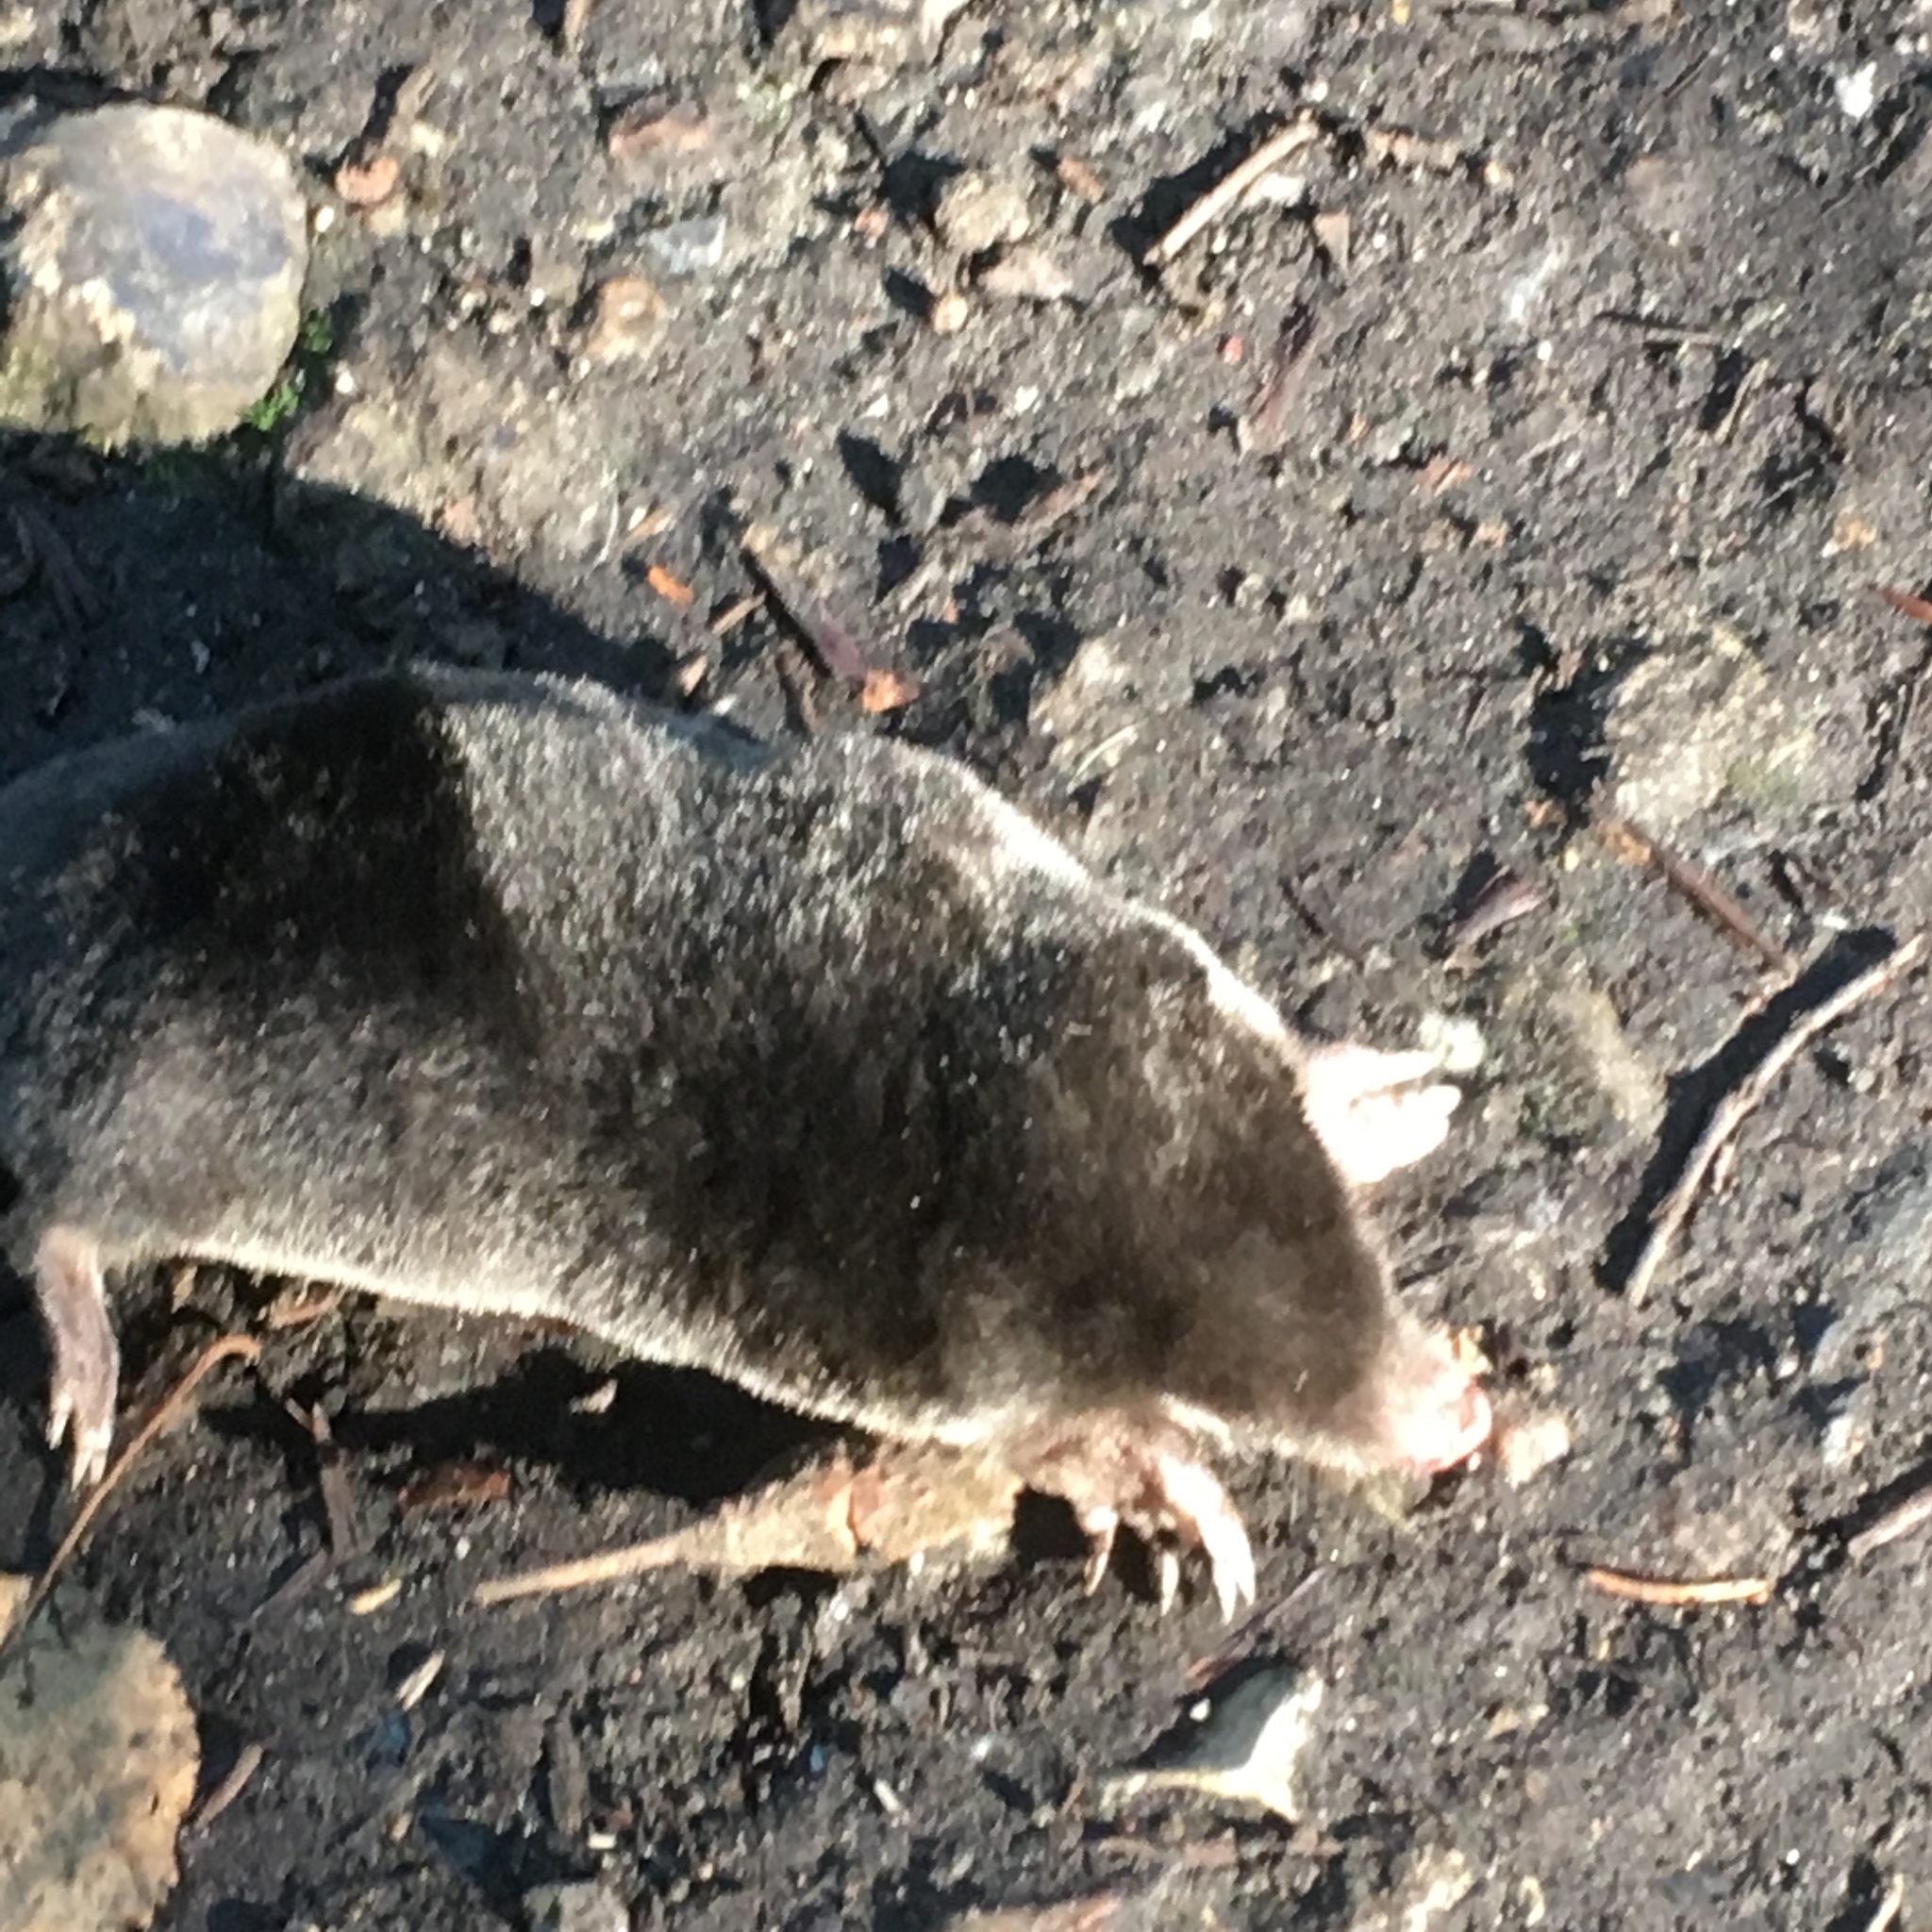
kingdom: Animalia
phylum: Chordata
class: Mammalia
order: Soricomorpha
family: Talpidae
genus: Talpa
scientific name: Talpa europaea
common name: European mole
